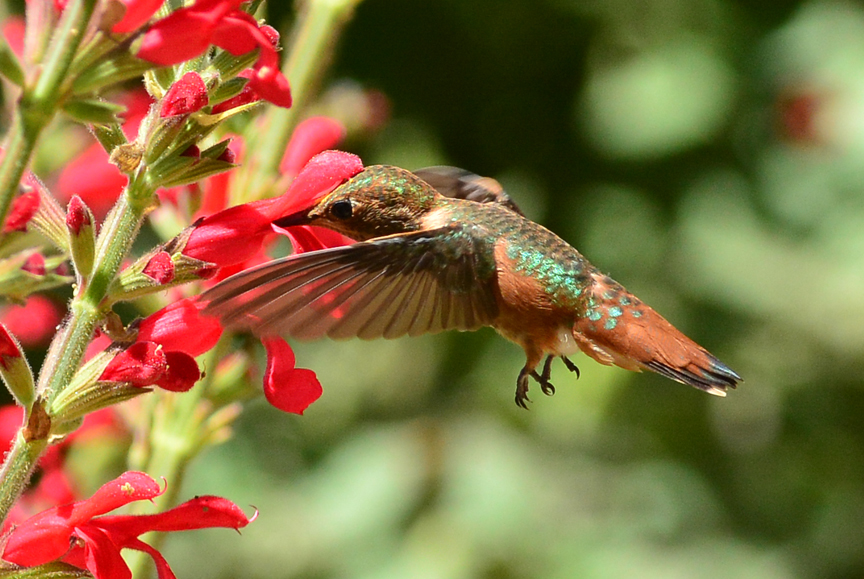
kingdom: Animalia
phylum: Chordata
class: Aves
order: Apodiformes
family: Trochilidae
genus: Selasphorus
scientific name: Selasphorus sasin
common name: Allen's hummingbird
